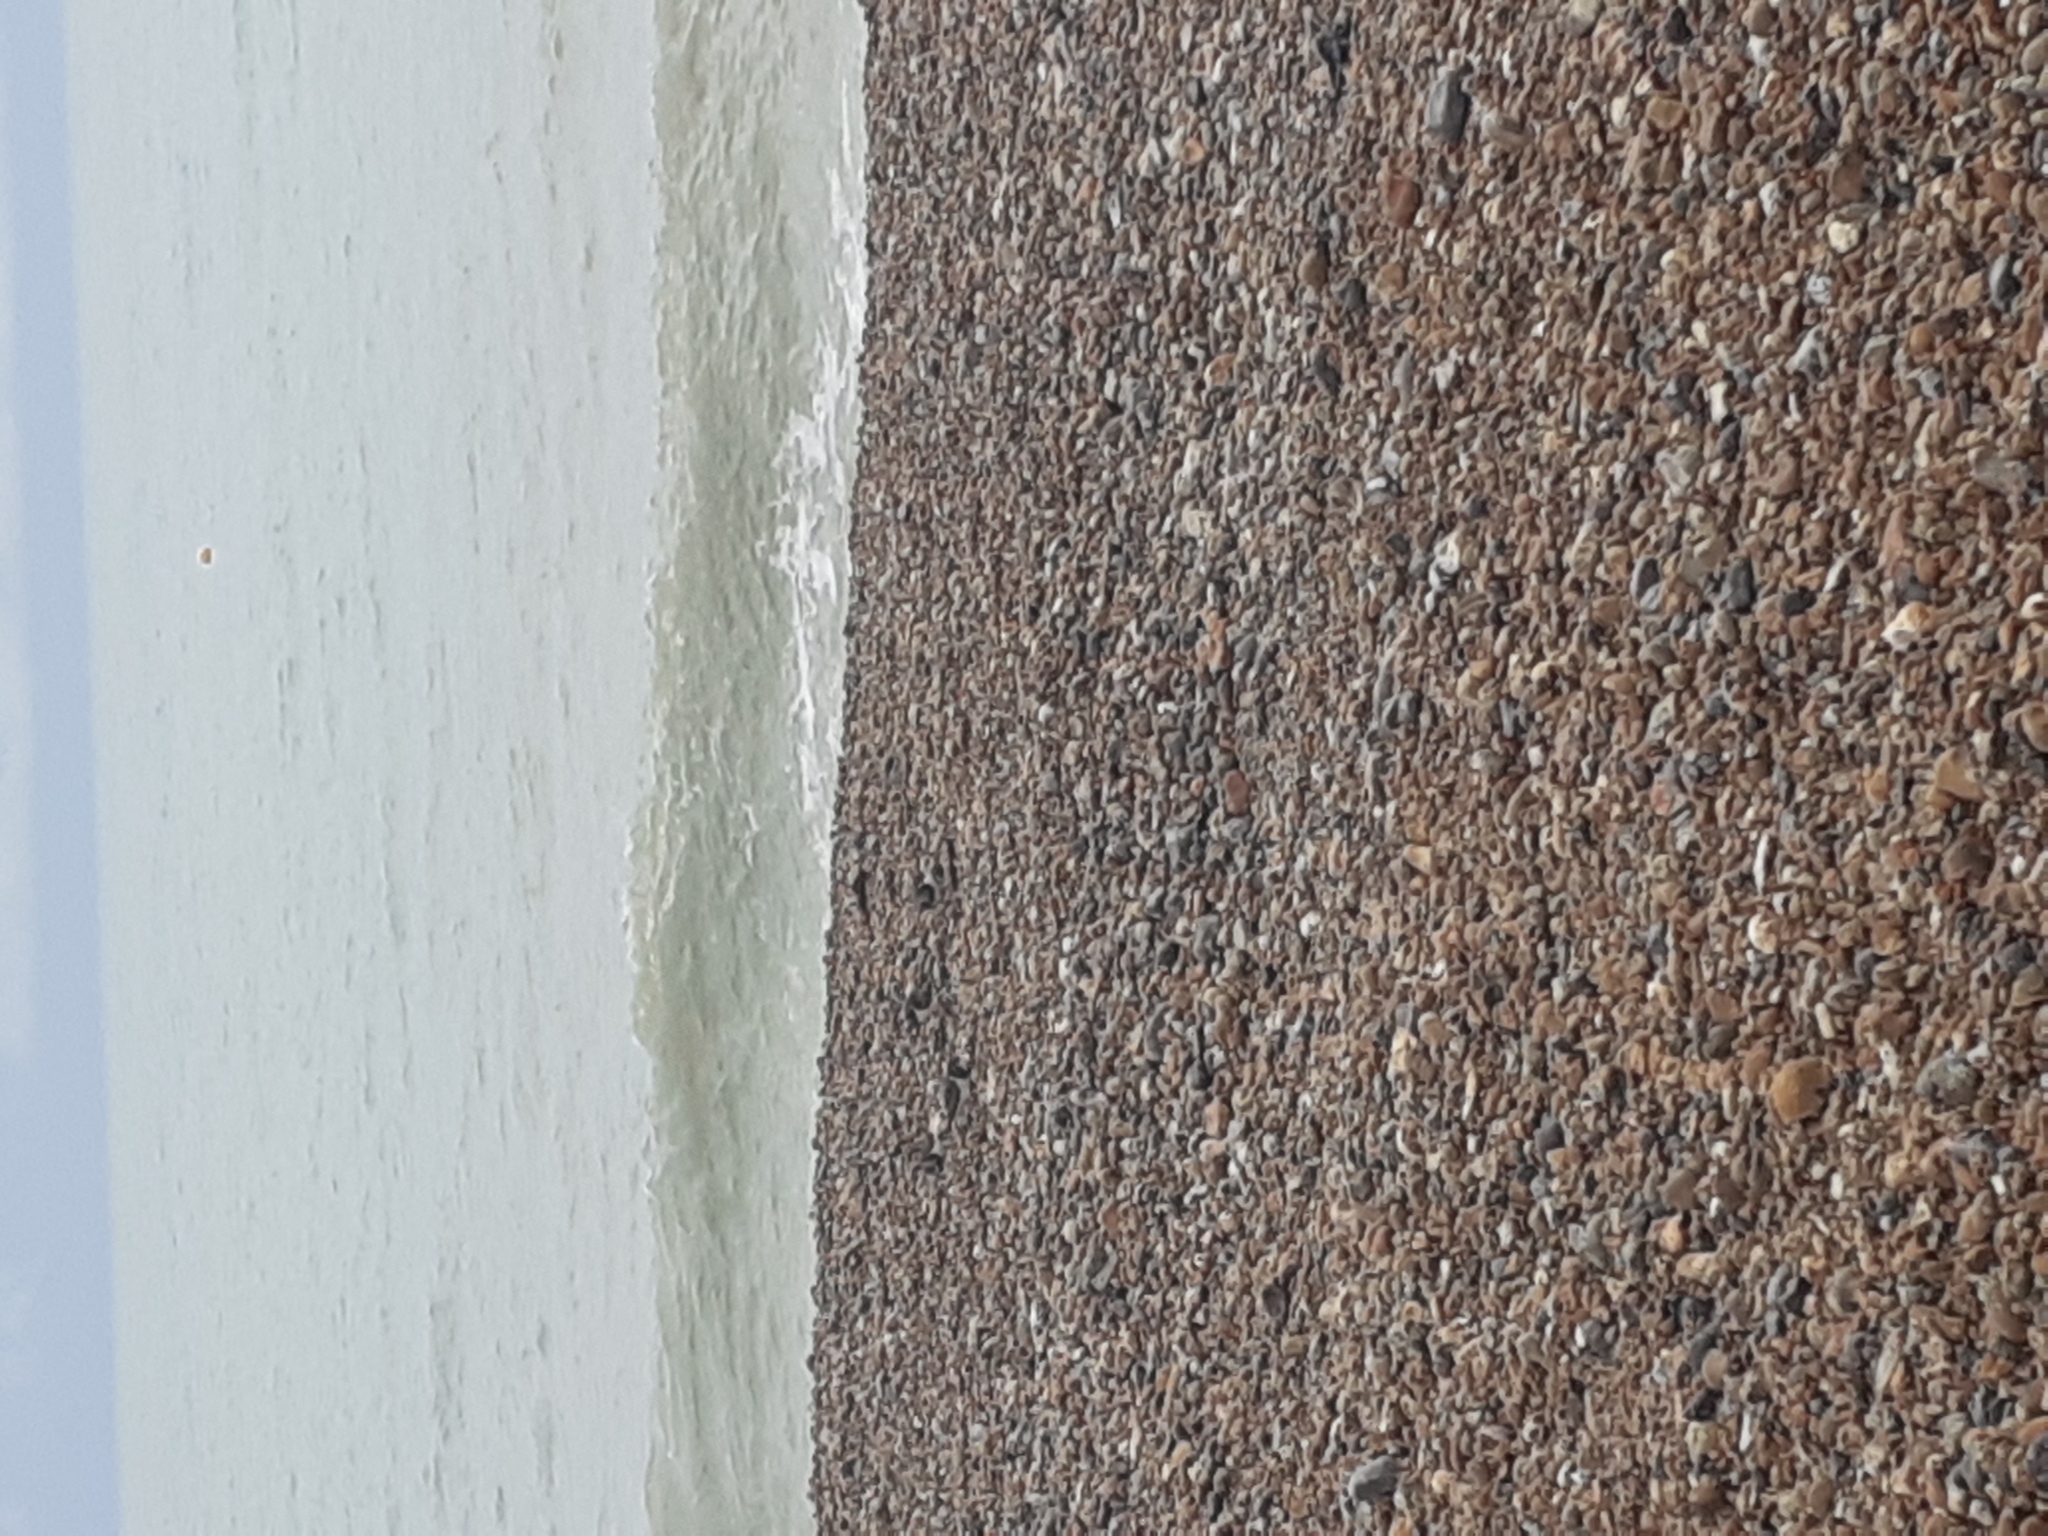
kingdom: Animalia
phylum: Chordata
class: Aves
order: Charadriiformes
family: Scolopacidae
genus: Arenaria
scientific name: Arenaria interpres
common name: Ruddy turnstone
